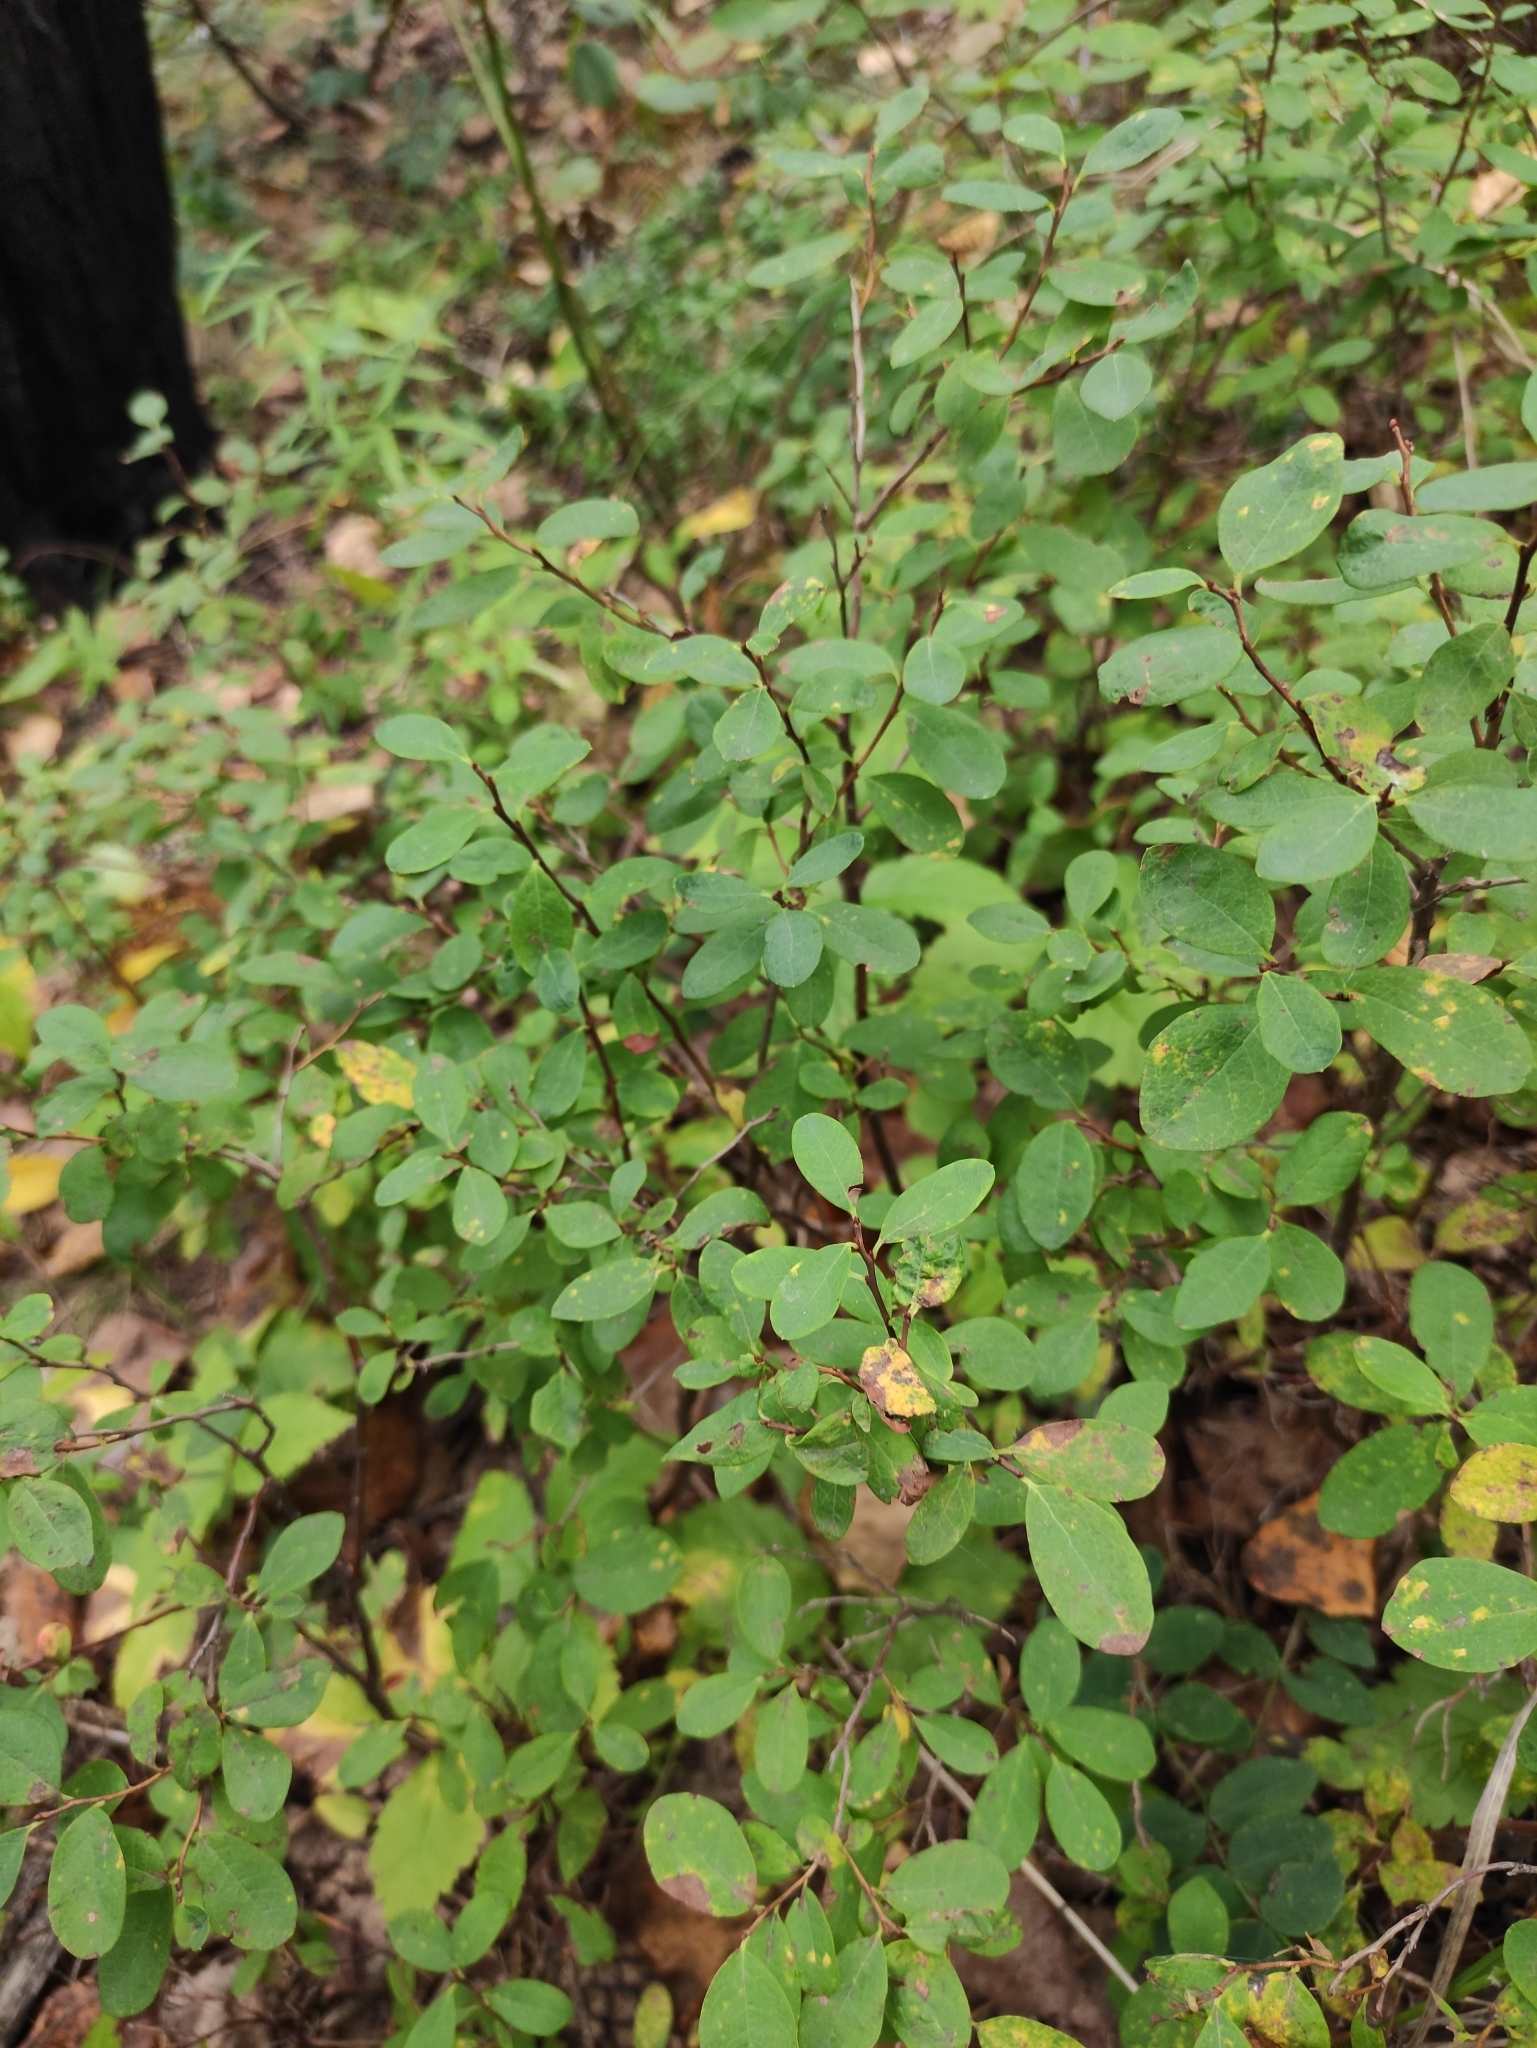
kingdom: Plantae
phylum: Tracheophyta
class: Magnoliopsida
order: Ericales
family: Ericaceae
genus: Vaccinium
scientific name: Vaccinium uliginosum
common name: Bog bilberry
